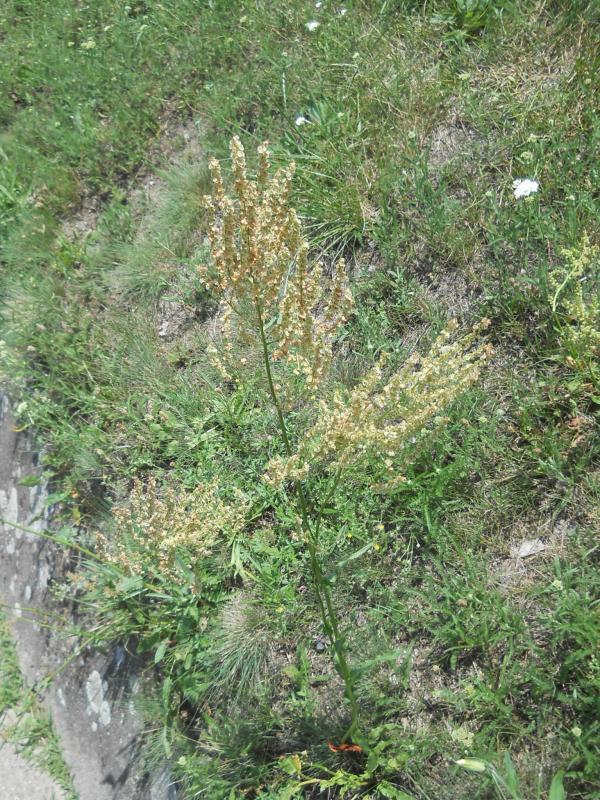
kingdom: Plantae
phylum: Tracheophyta
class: Magnoliopsida
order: Caryophyllales
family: Polygonaceae
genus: Rumex
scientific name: Rumex thyrsiflorus
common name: Garden sorrel
